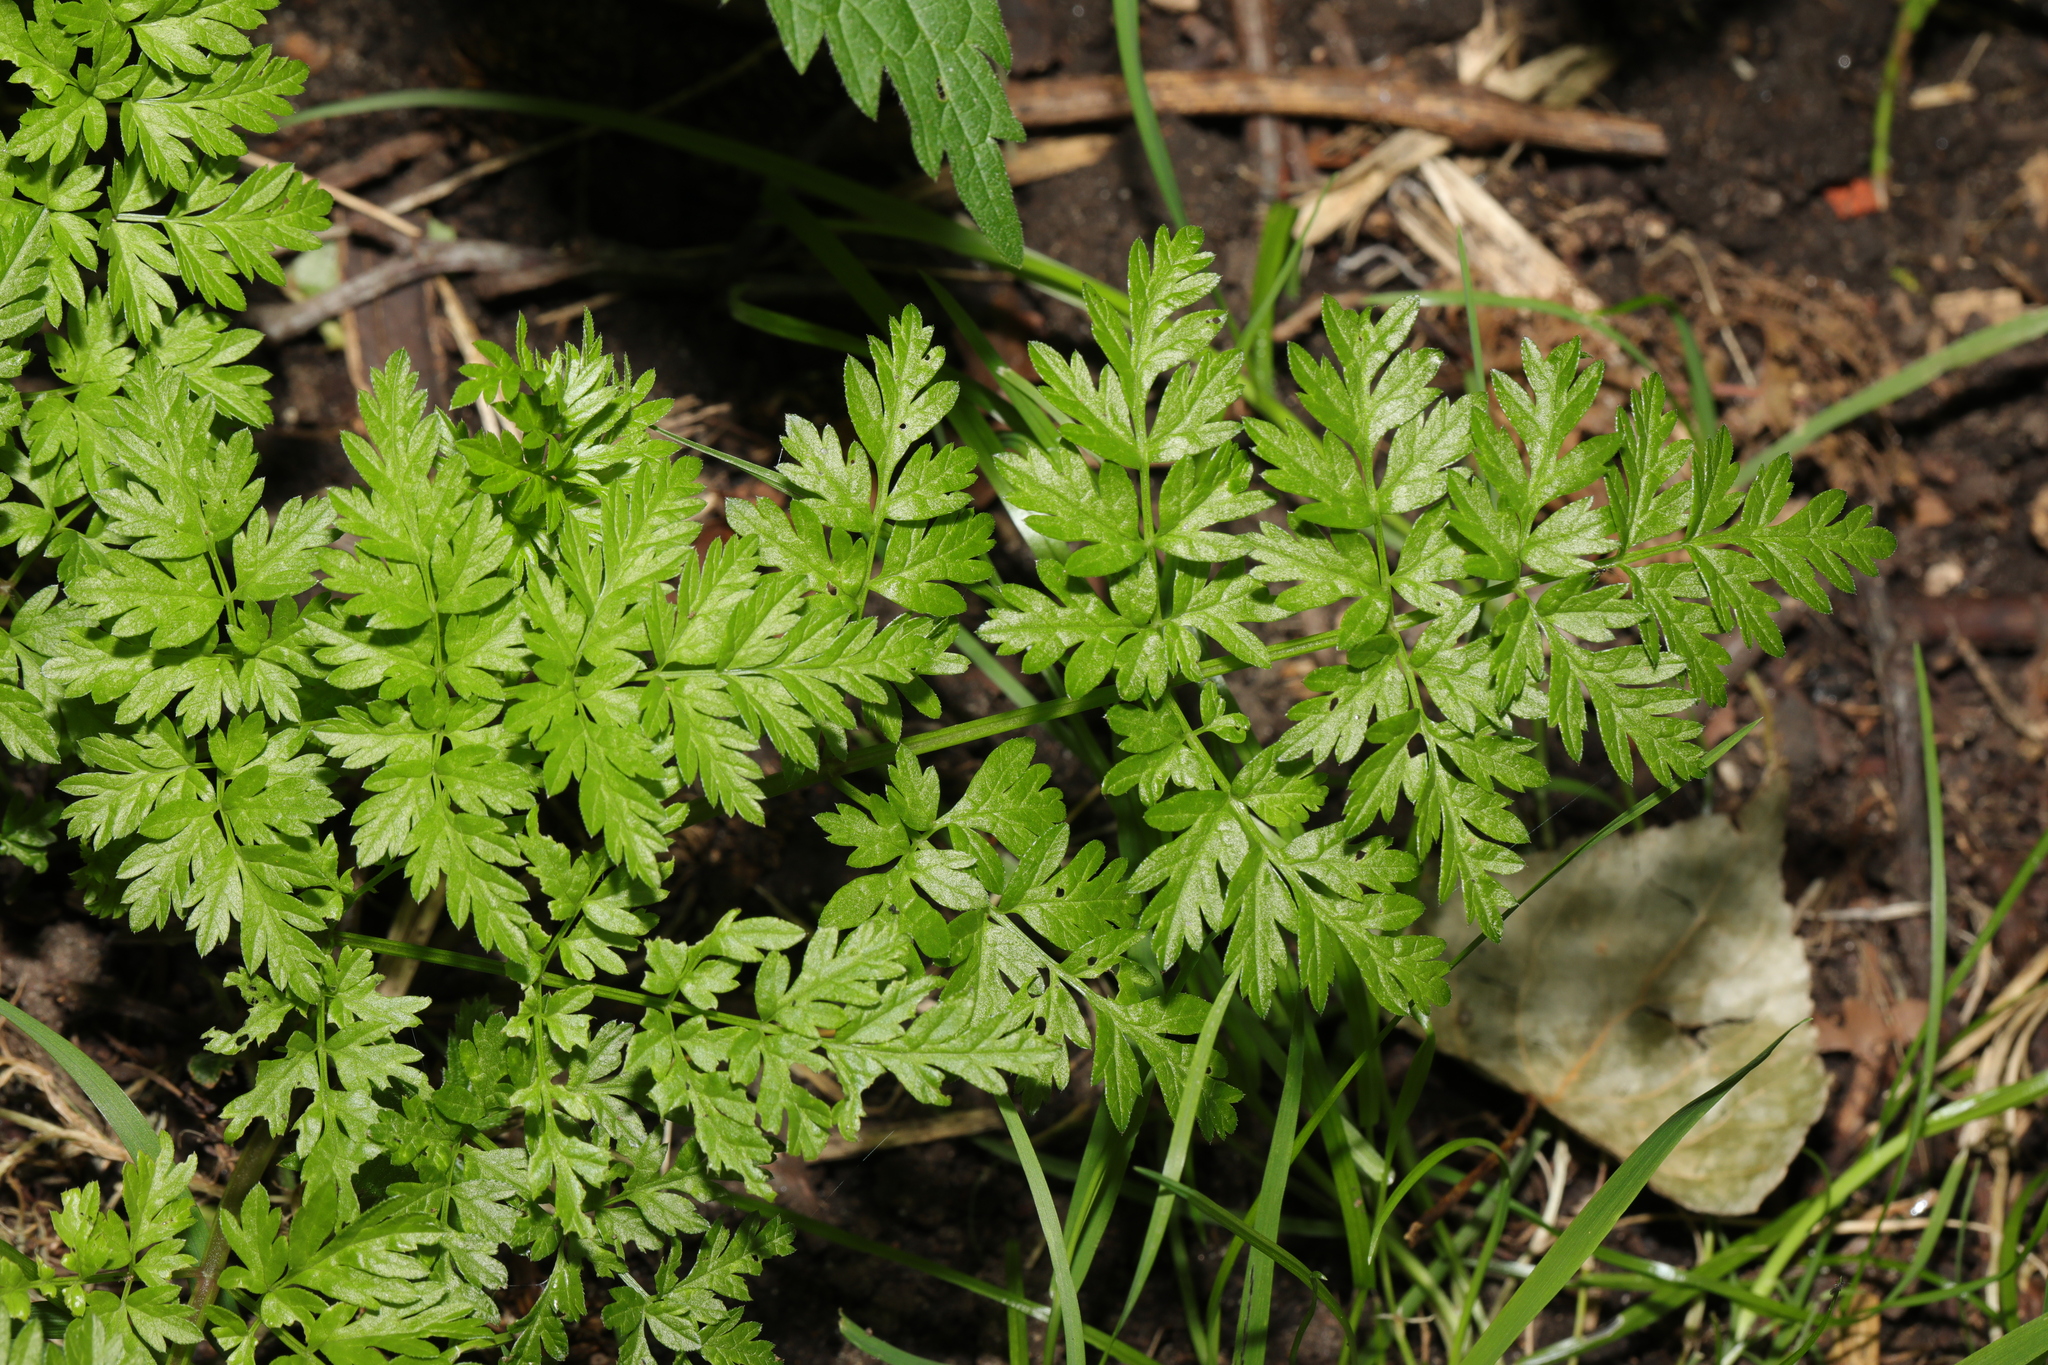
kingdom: Plantae
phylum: Tracheophyta
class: Magnoliopsida
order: Apiales
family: Apiaceae
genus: Anthriscus
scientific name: Anthriscus sylvestris
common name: Cow parsley
